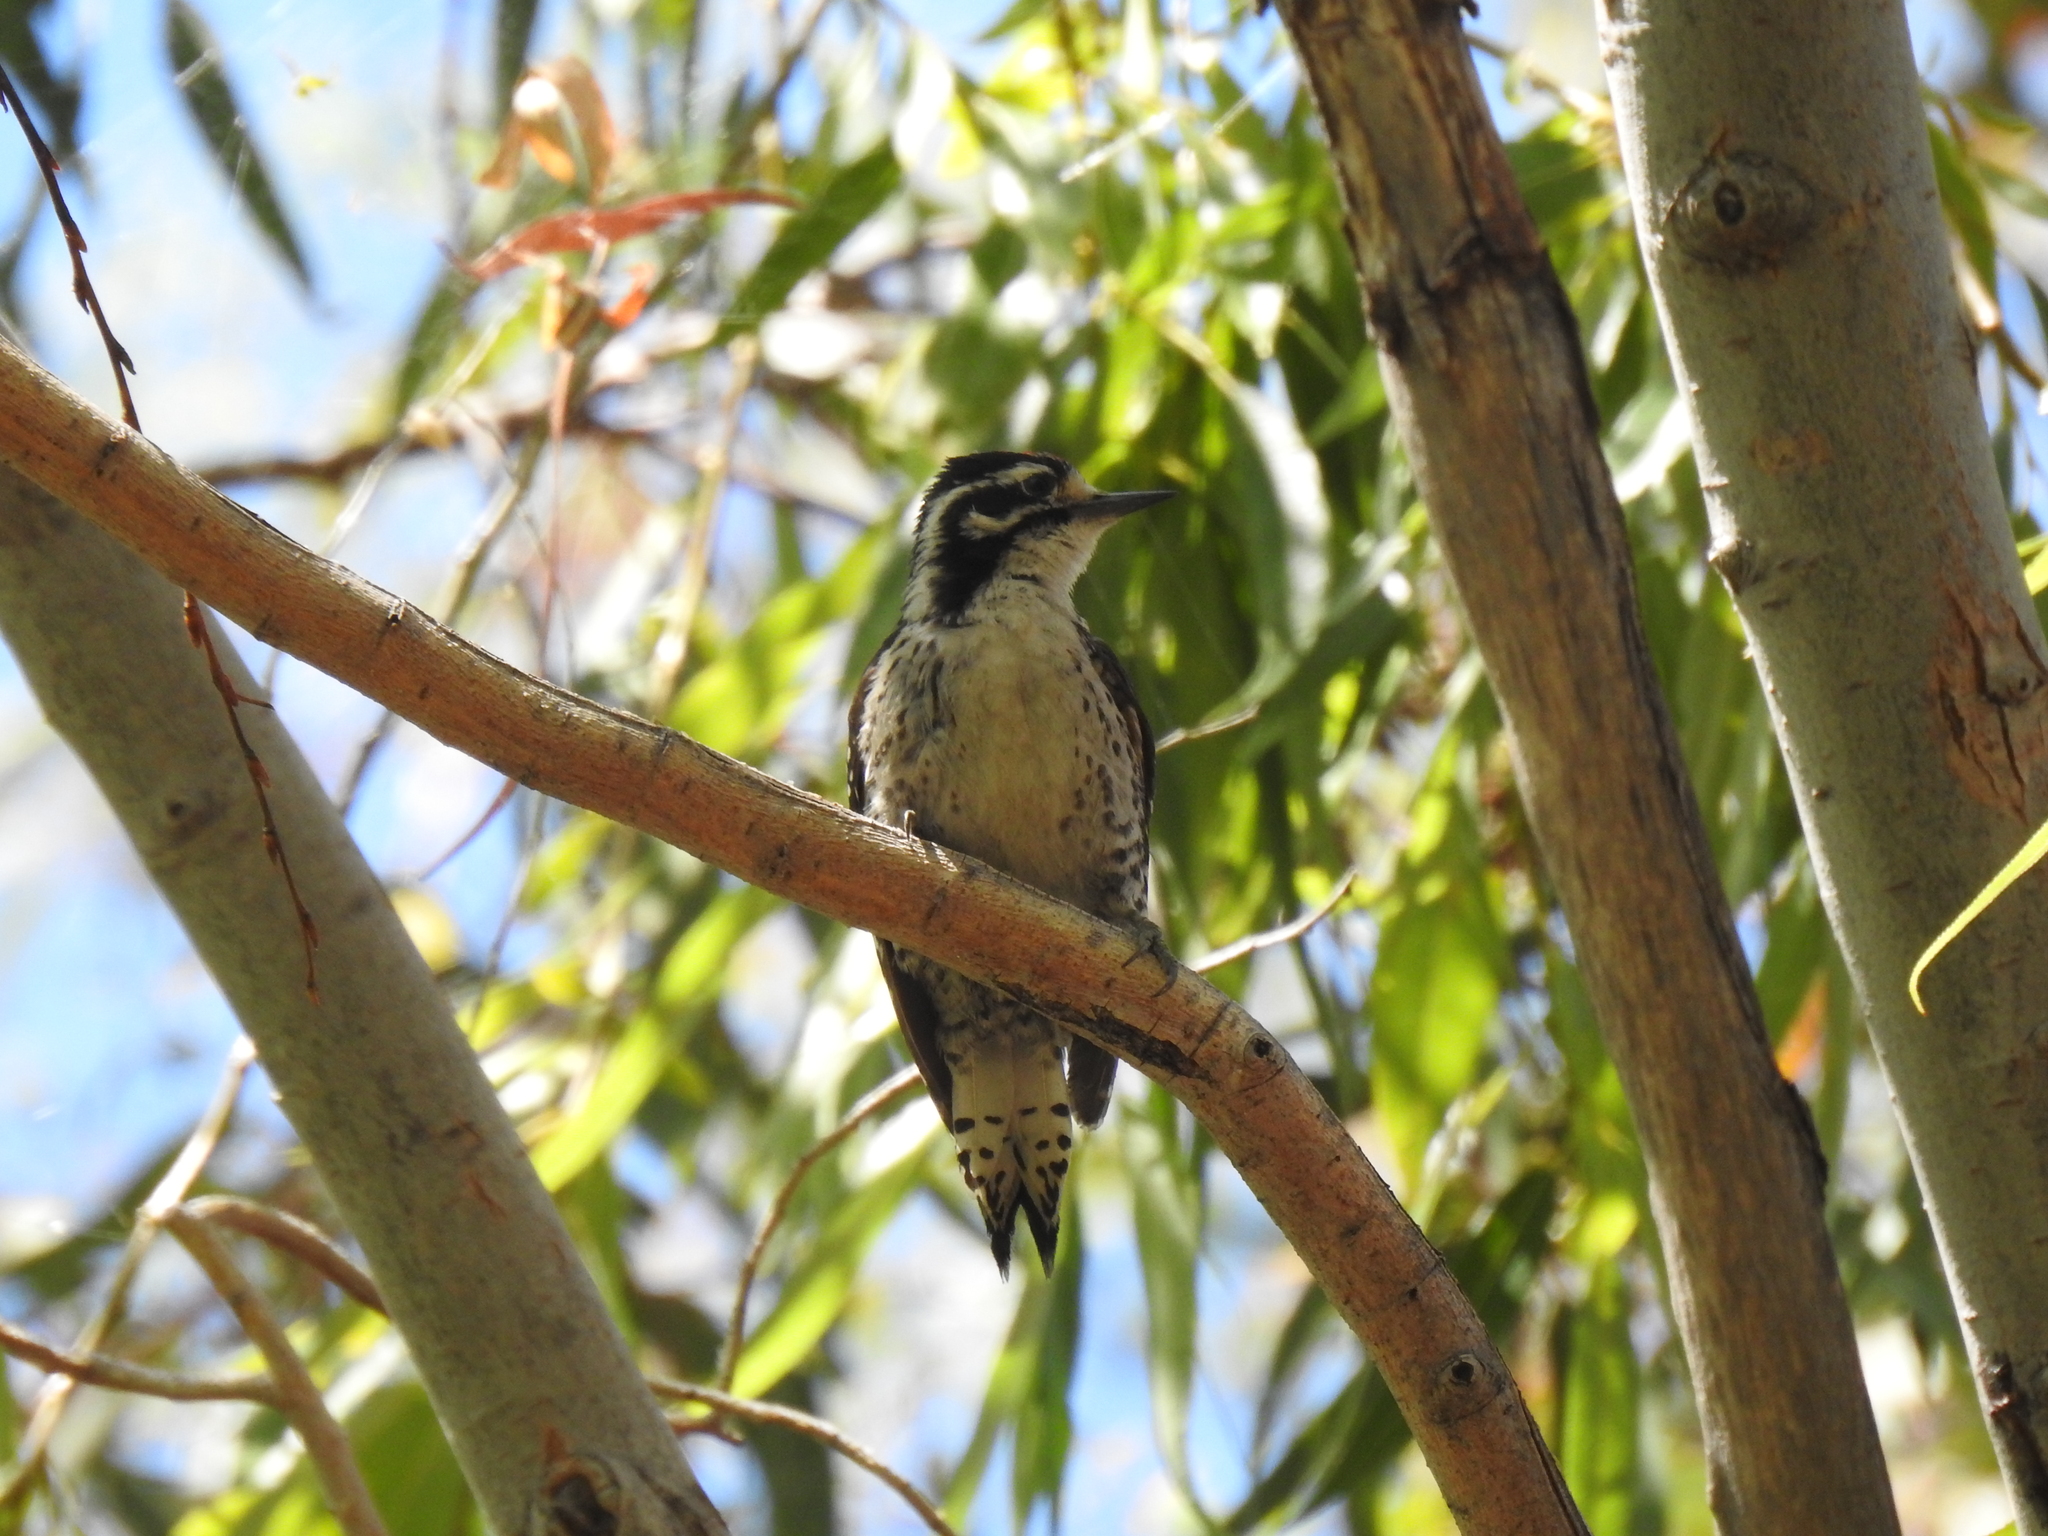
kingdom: Animalia
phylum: Chordata
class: Aves
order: Piciformes
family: Picidae
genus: Dryobates
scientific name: Dryobates nuttallii
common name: Nuttall's woodpecker
